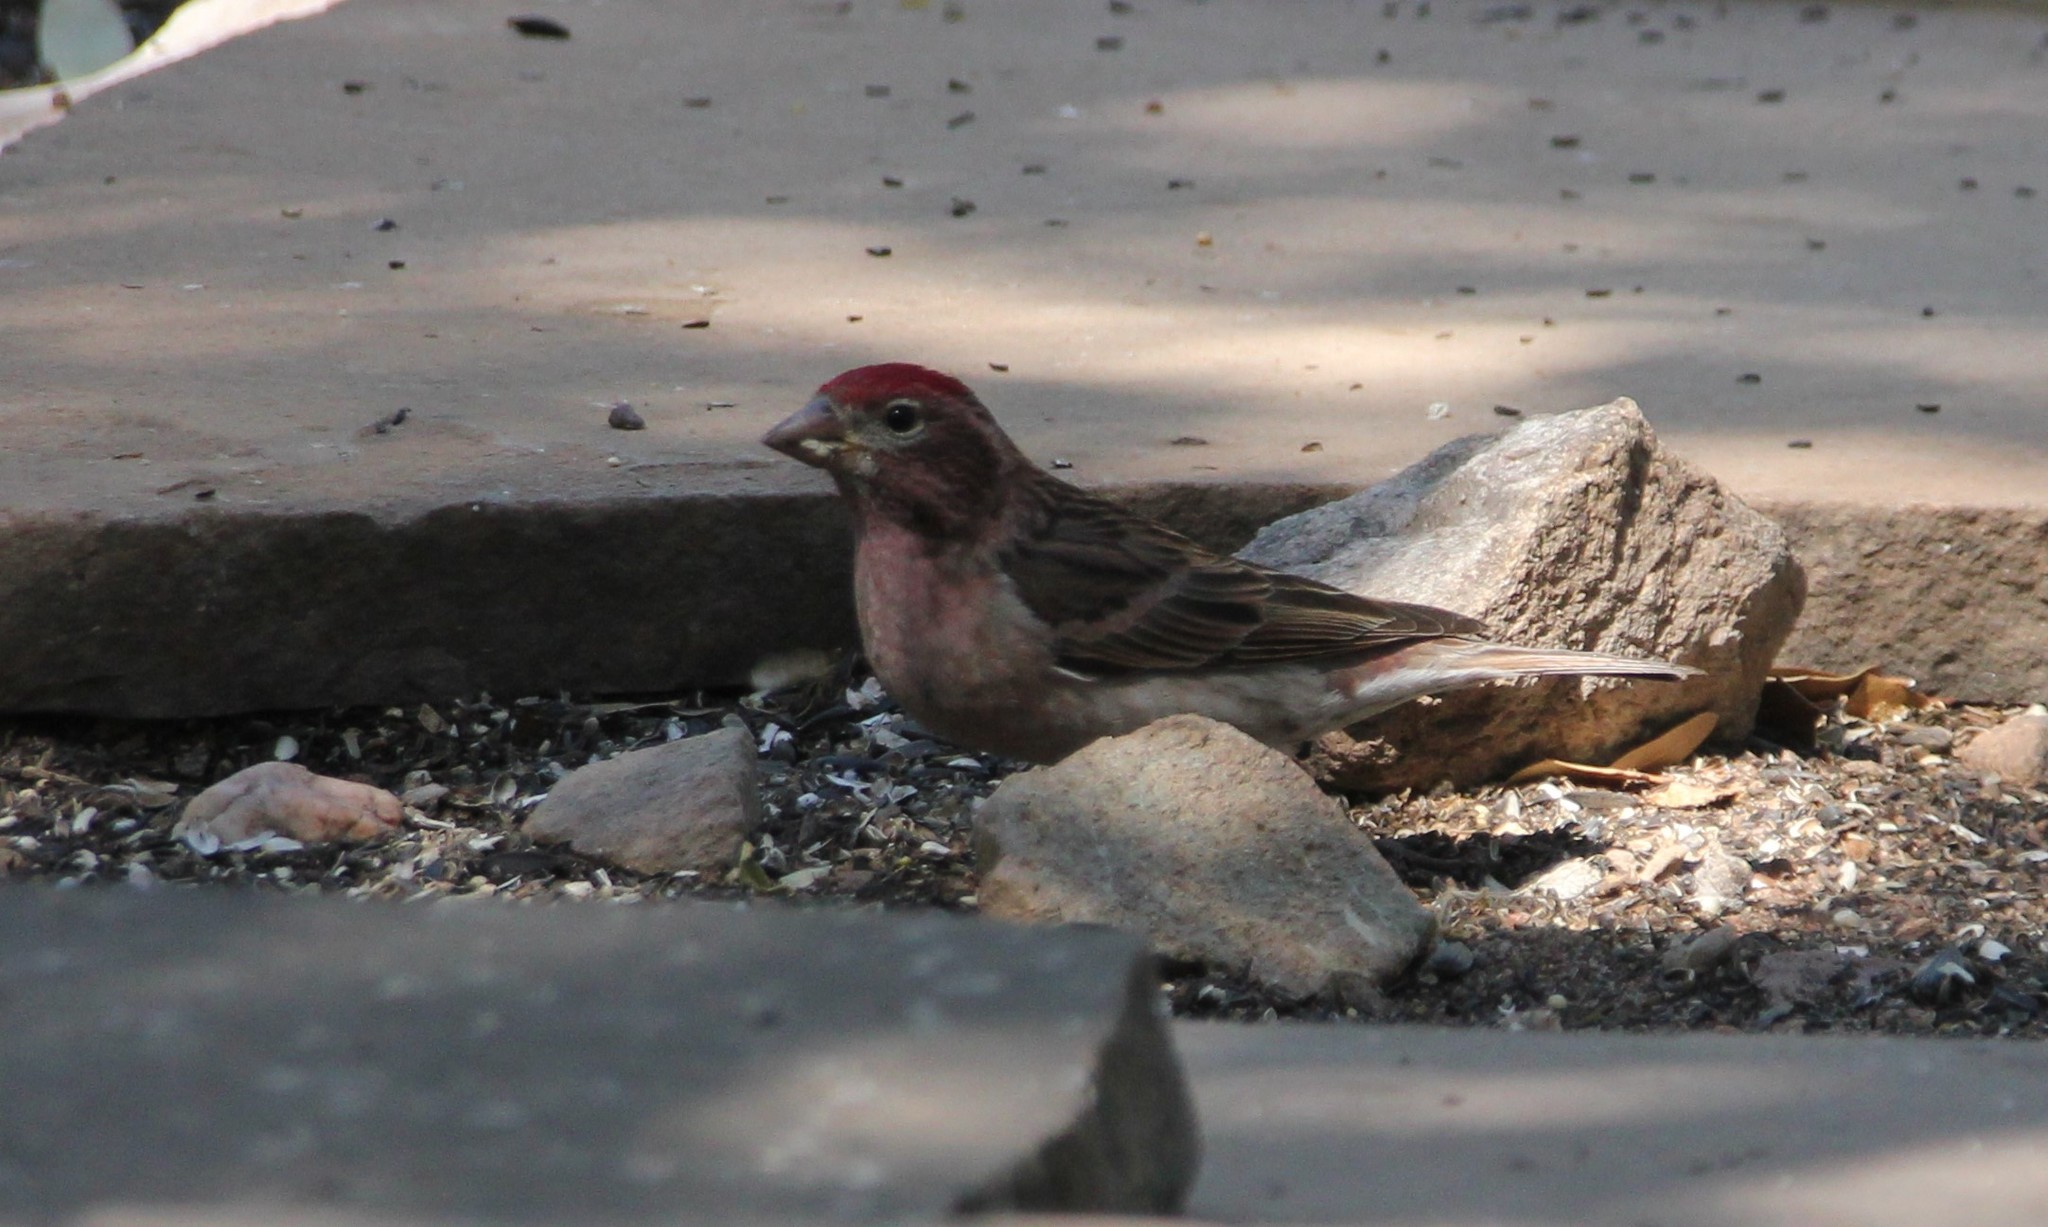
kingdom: Animalia
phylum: Chordata
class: Aves
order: Passeriformes
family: Fringillidae
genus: Haemorhous
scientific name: Haemorhous cassinii
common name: Cassin's finch
